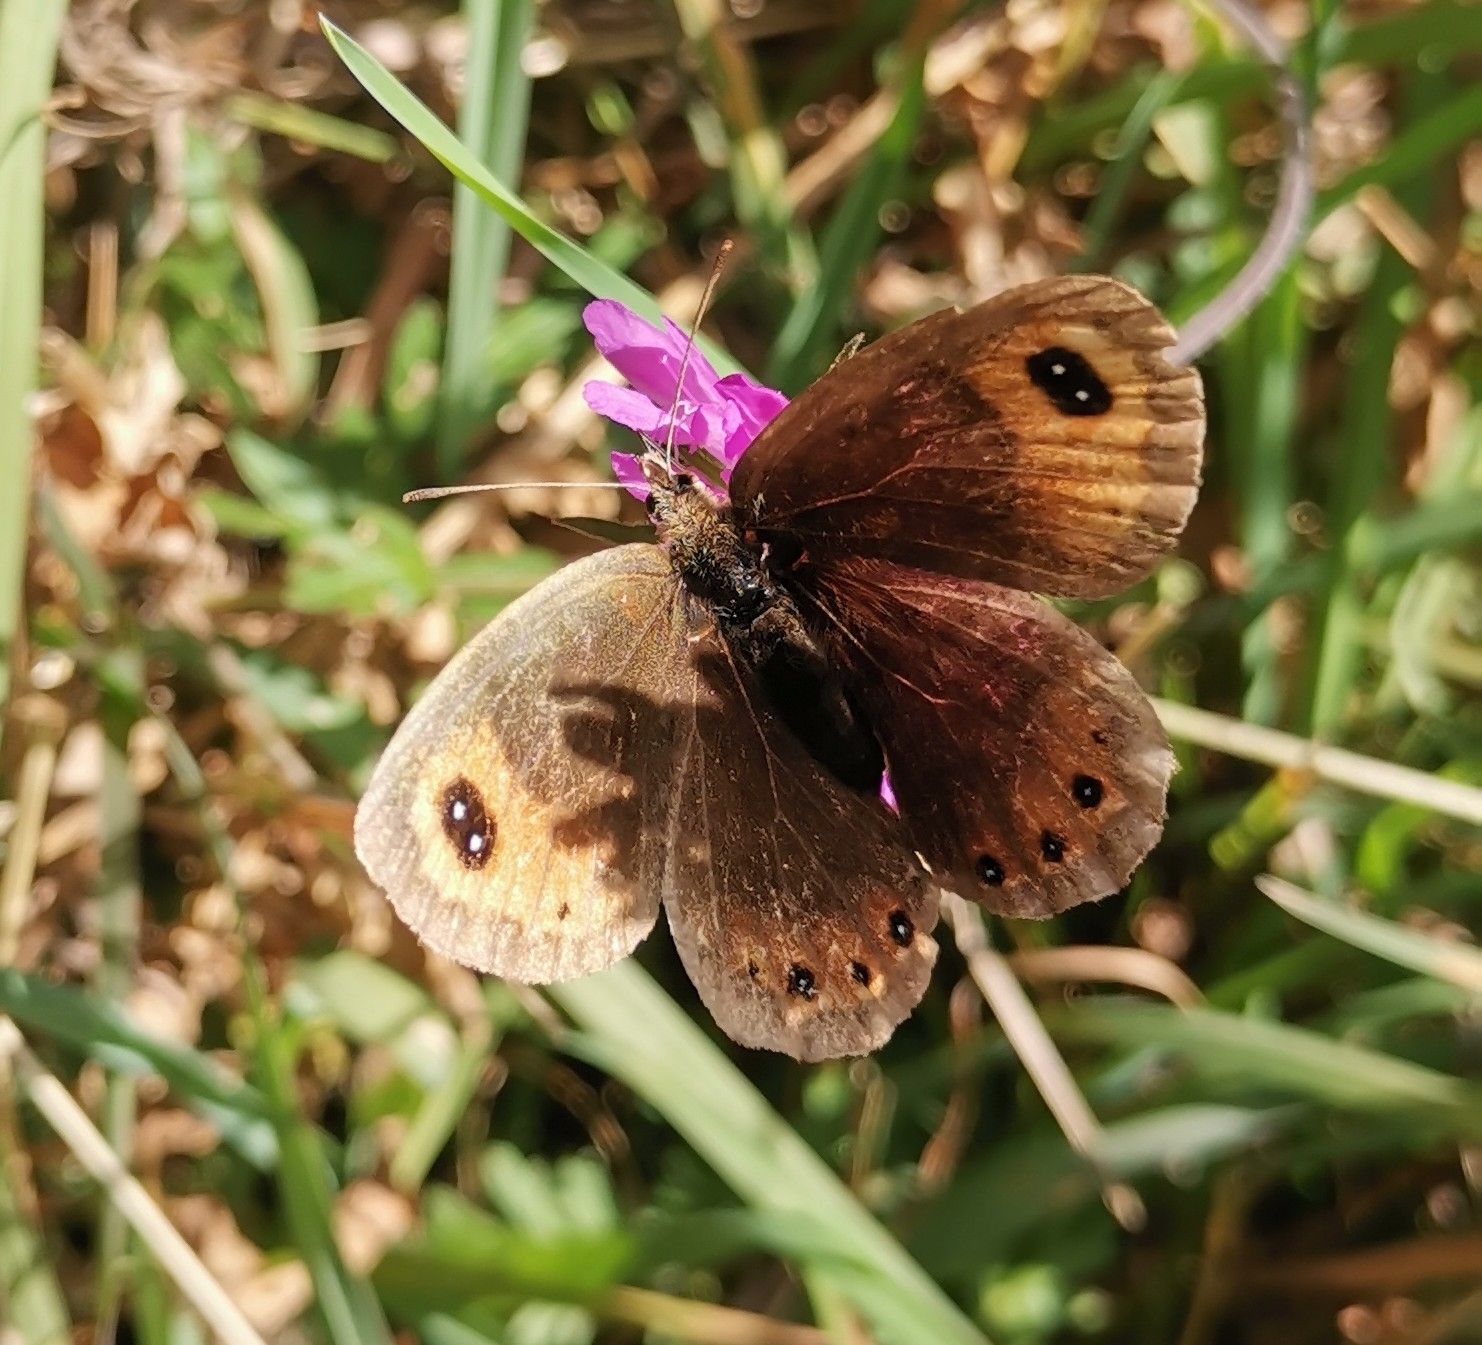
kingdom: Animalia
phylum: Arthropoda
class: Insecta
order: Lepidoptera
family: Nymphalidae
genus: Erebia
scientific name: Erebia montanus
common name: Marbled ringlet
